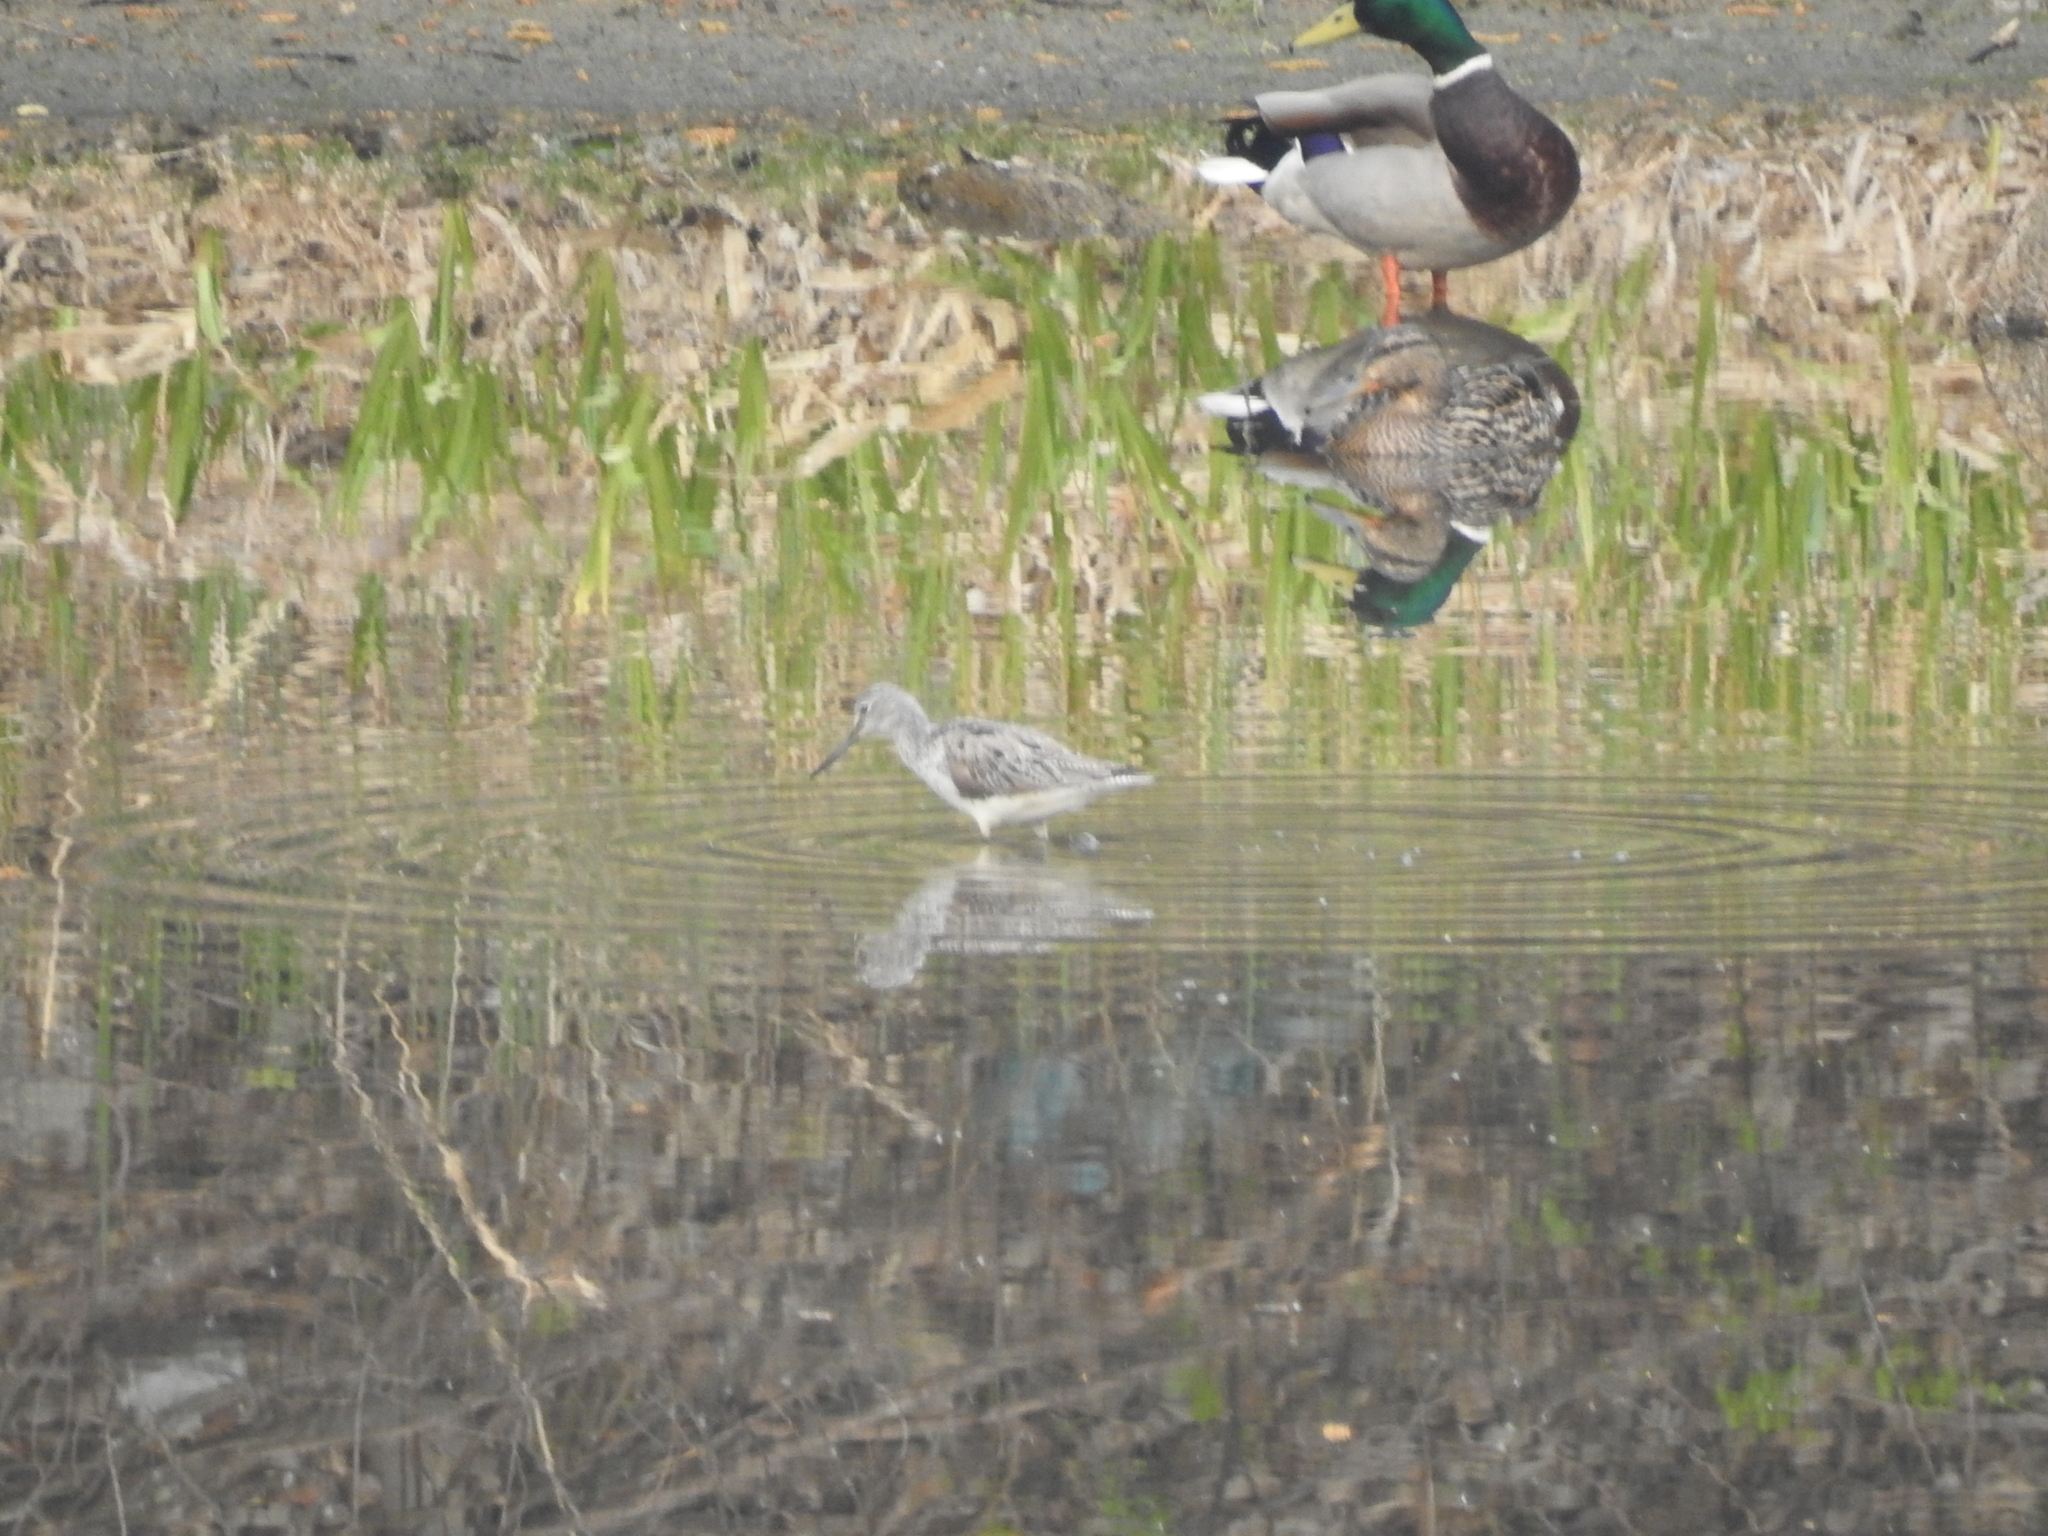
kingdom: Animalia
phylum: Chordata
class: Aves
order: Charadriiformes
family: Scolopacidae
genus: Tringa
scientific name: Tringa nebularia
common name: Common greenshank
